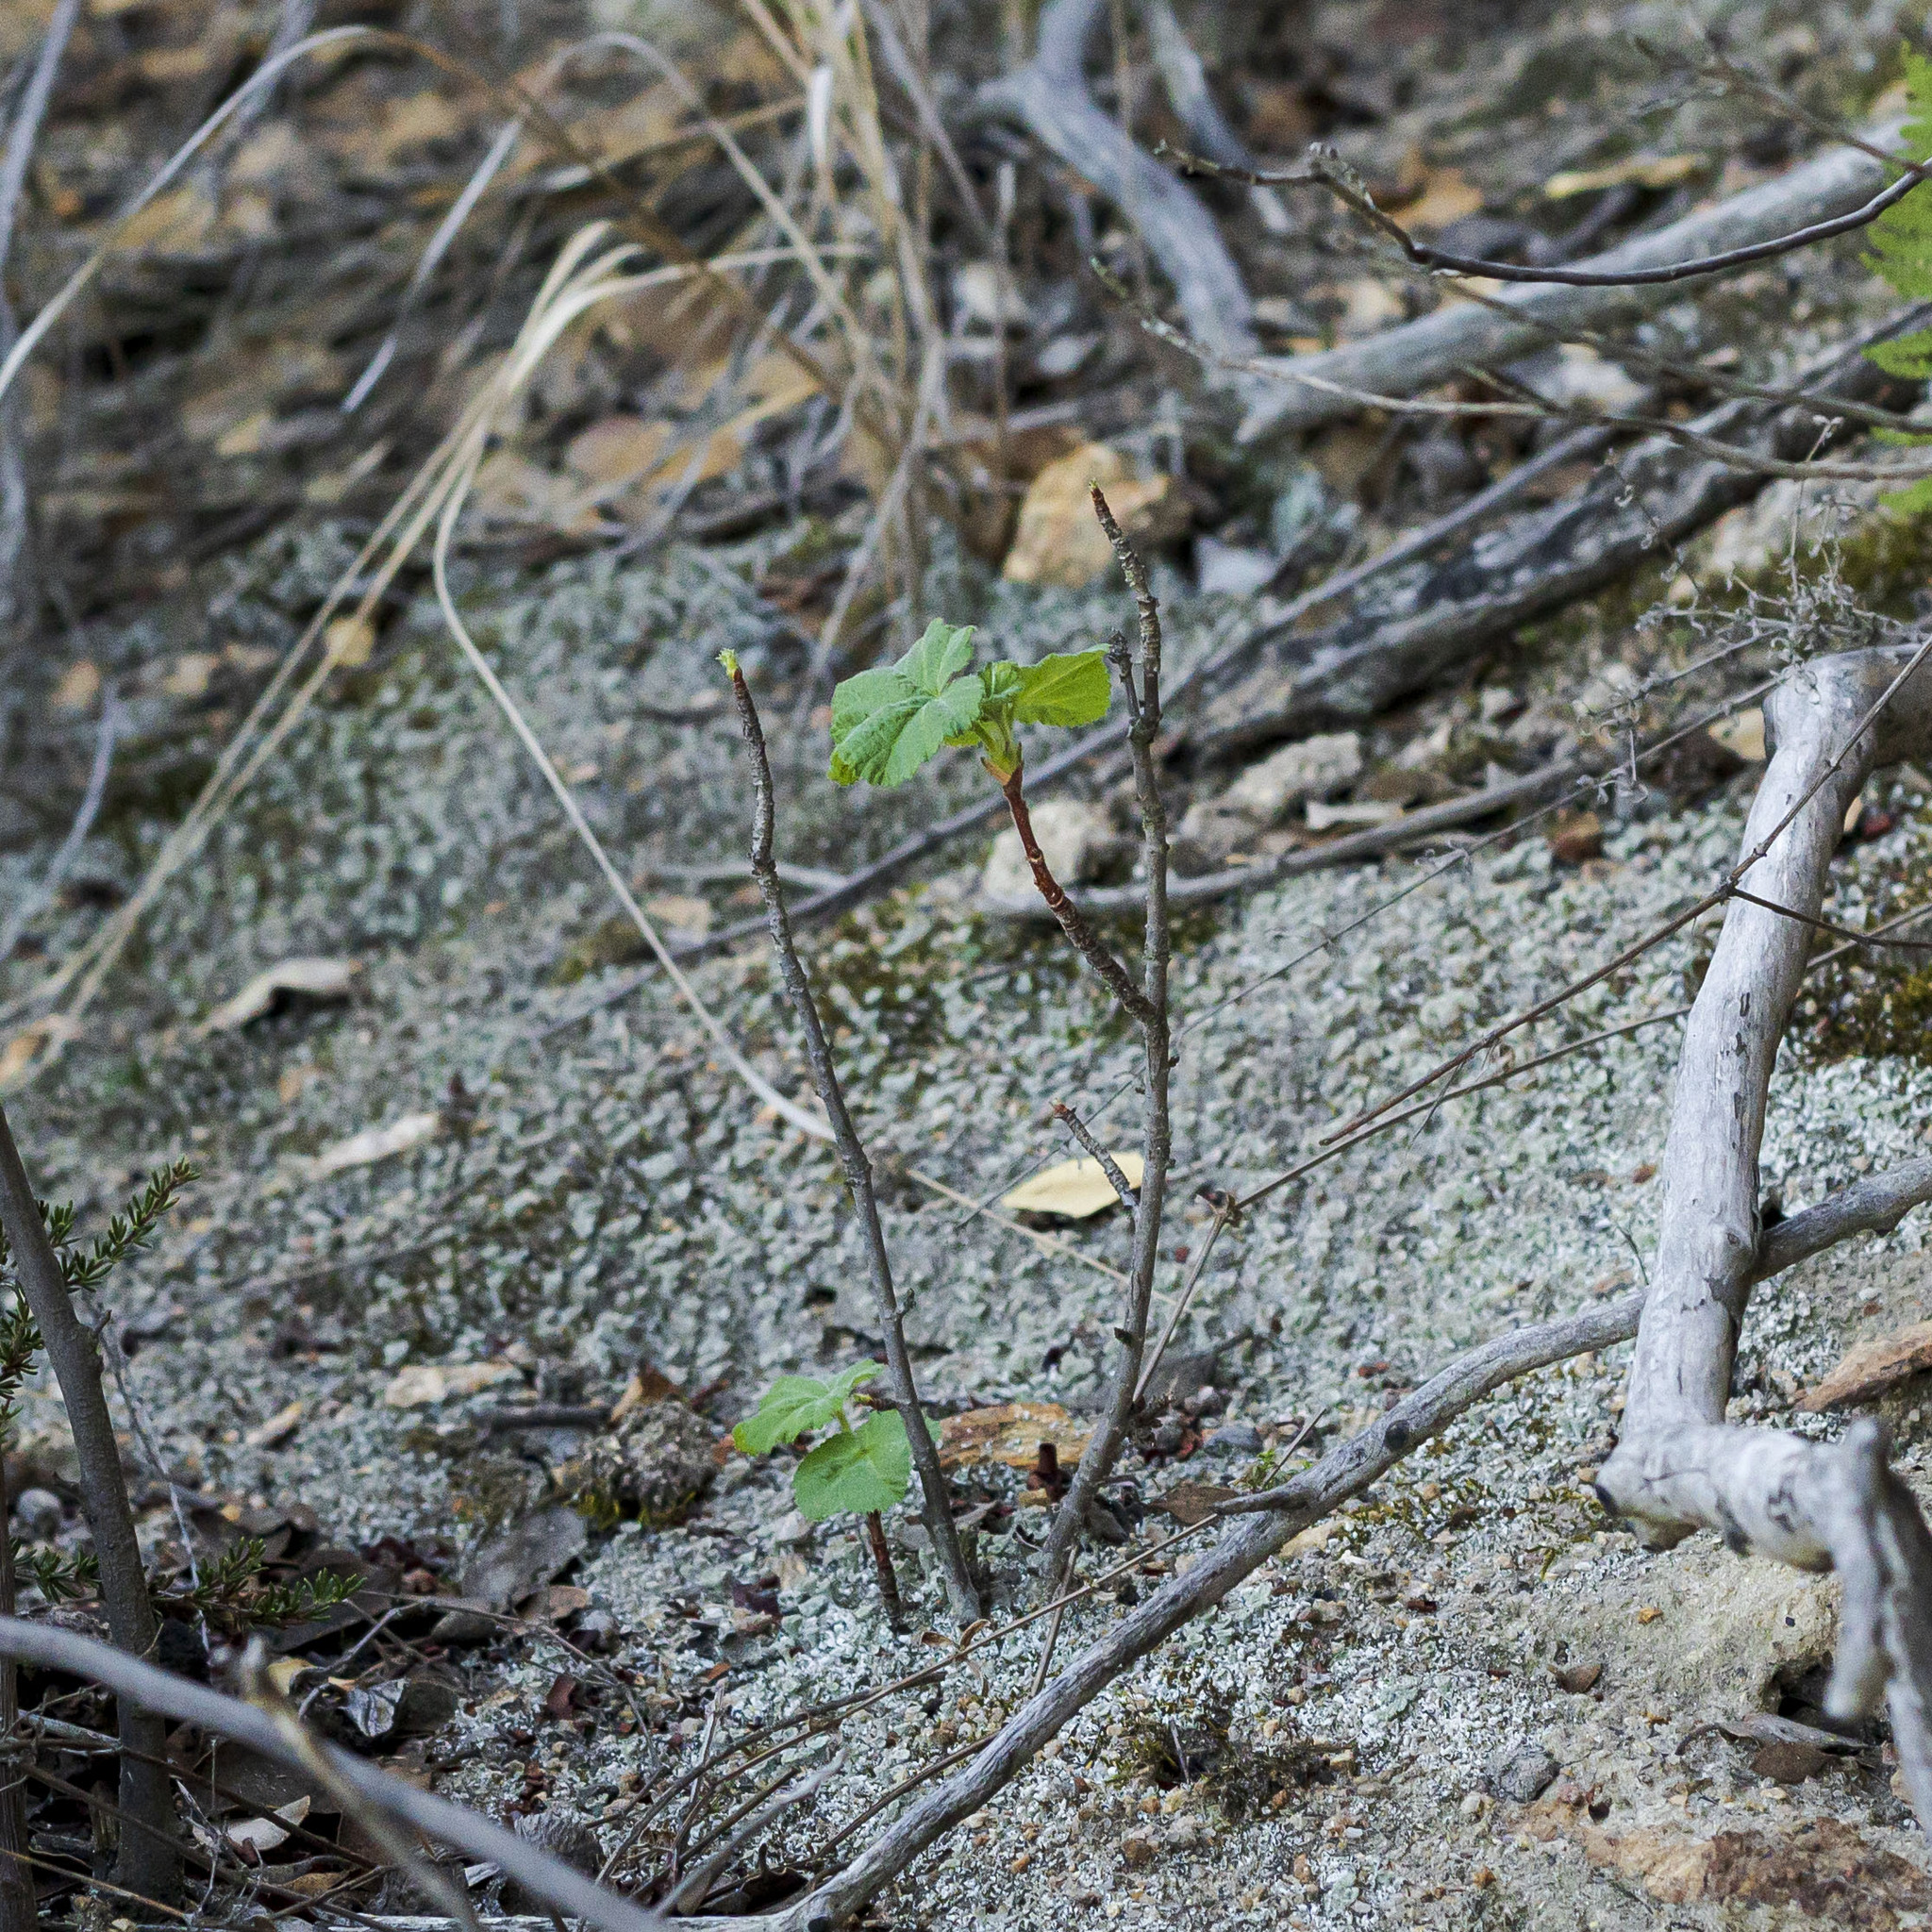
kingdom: Plantae
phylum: Tracheophyta
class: Magnoliopsida
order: Saxifragales
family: Grossulariaceae
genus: Ribes
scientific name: Ribes canthariforme
